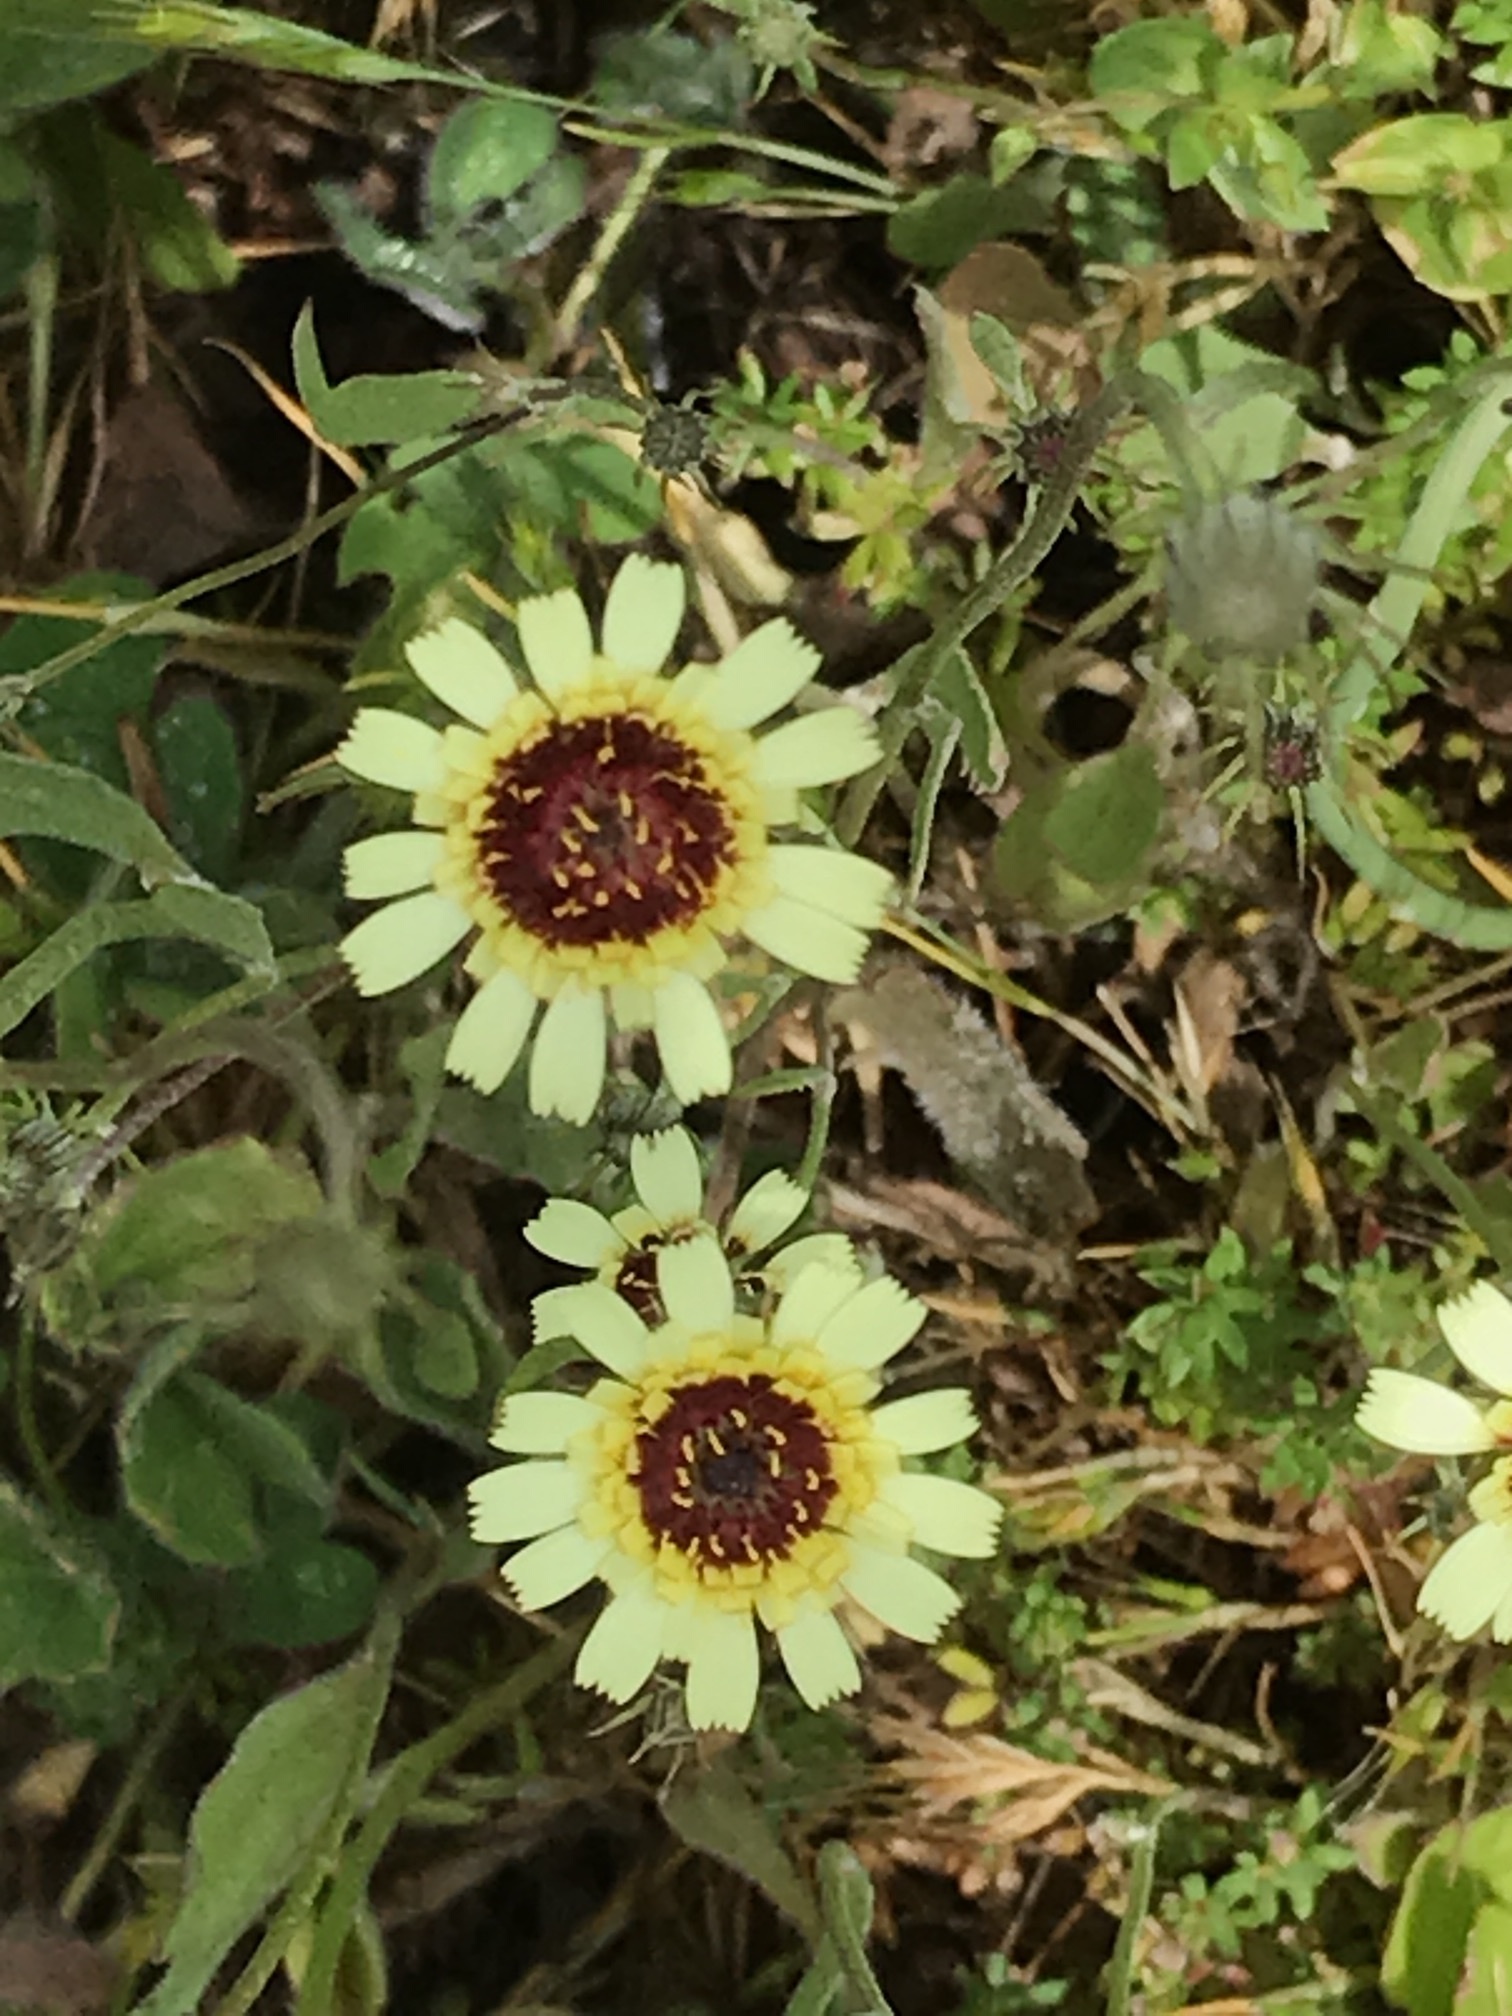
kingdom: Plantae
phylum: Tracheophyta
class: Magnoliopsida
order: Asterales
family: Asteraceae
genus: Tolpis
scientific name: Tolpis barbata
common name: Yellow hawkweed
